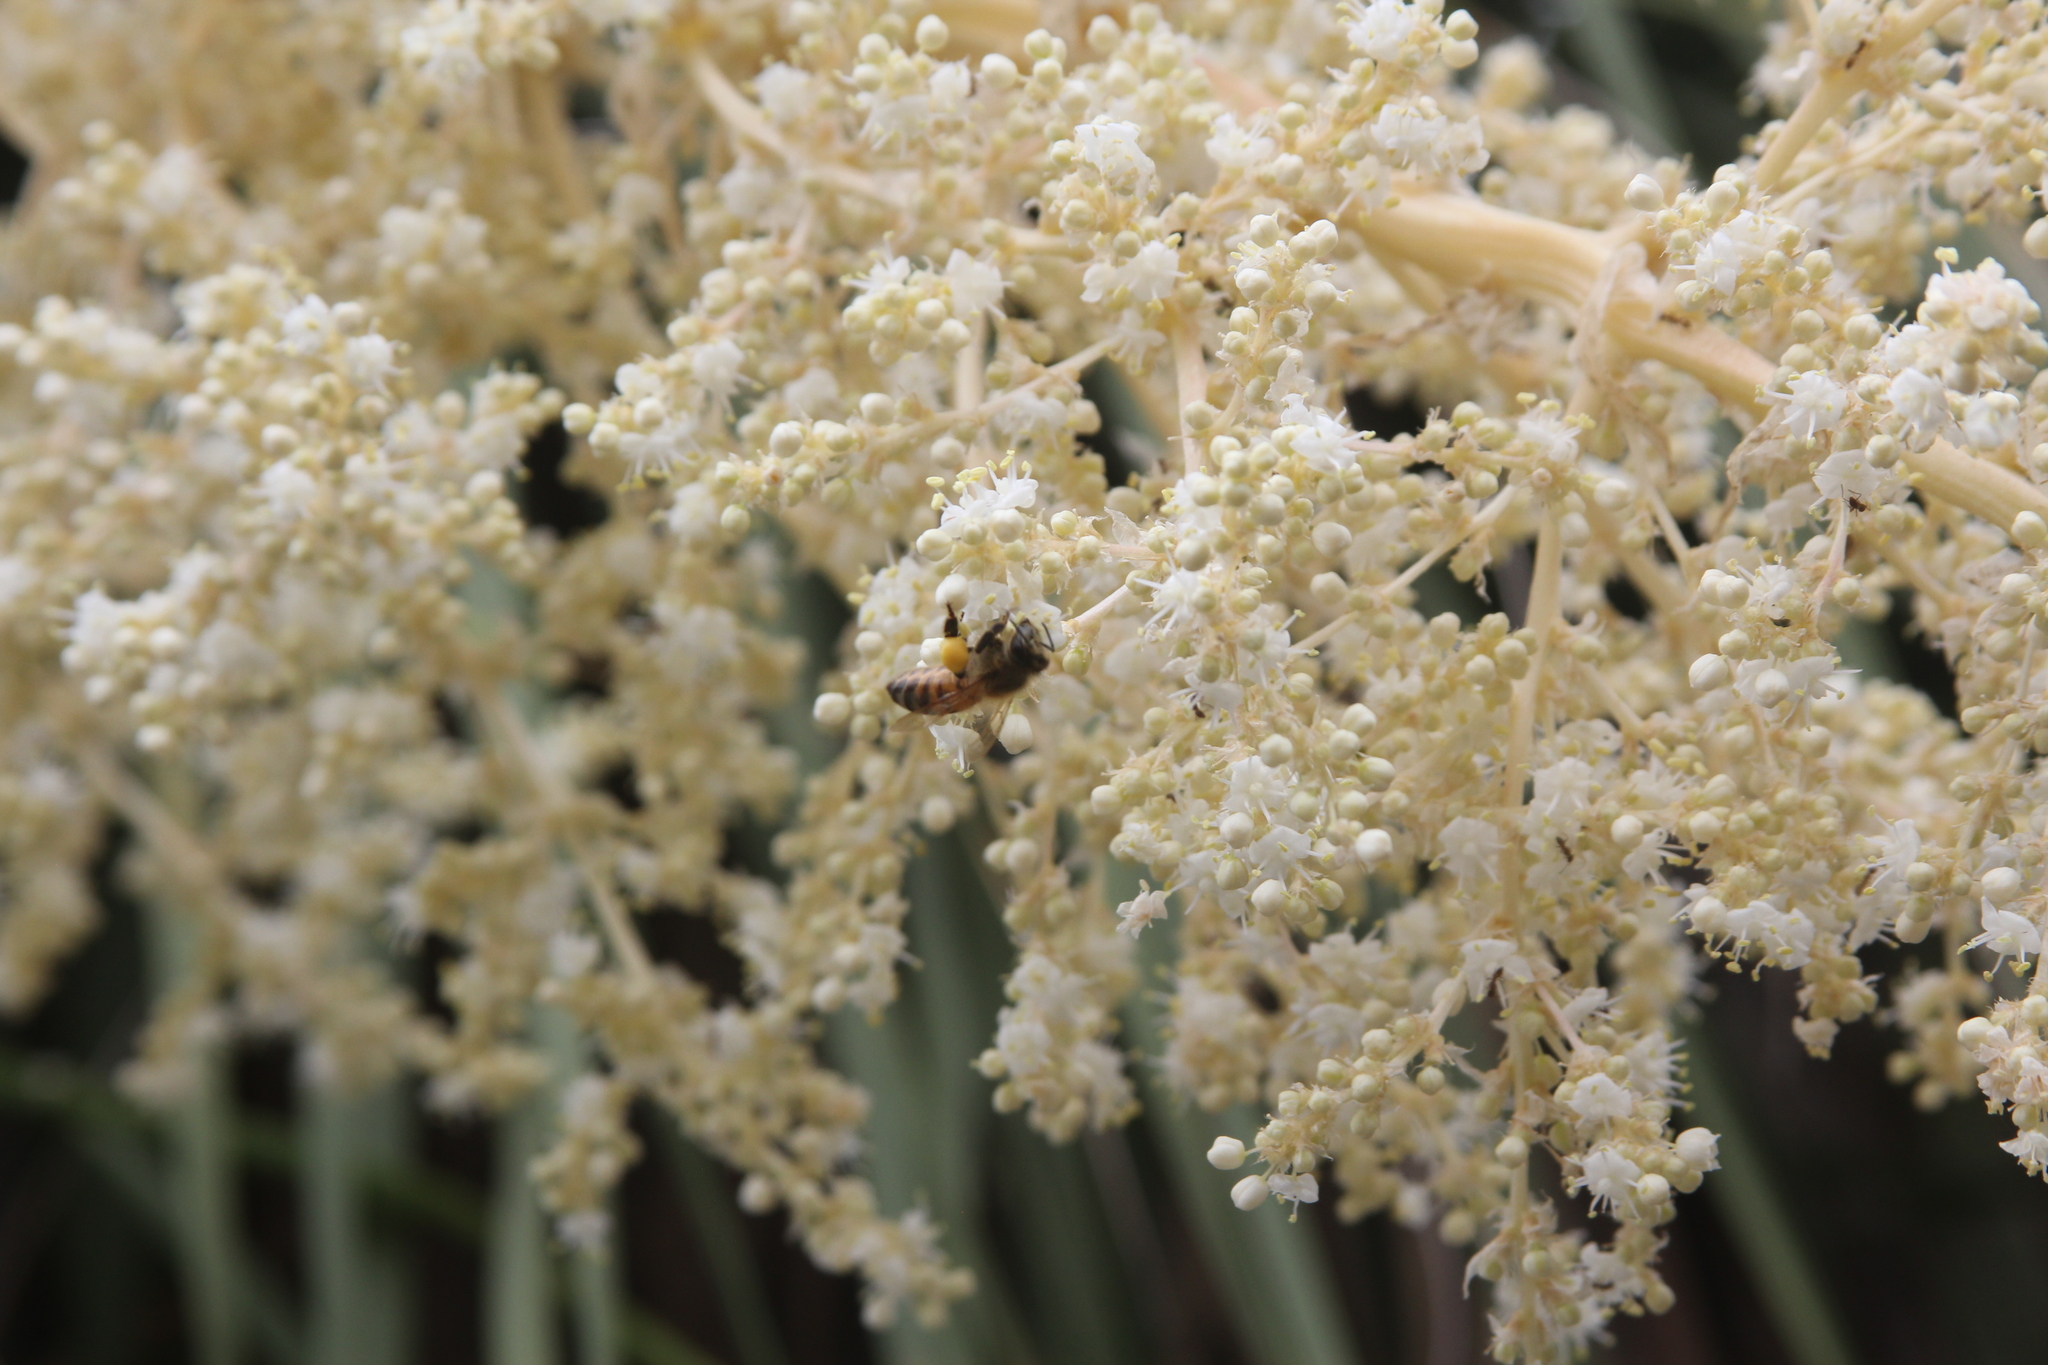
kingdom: Animalia
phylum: Arthropoda
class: Insecta
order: Hymenoptera
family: Apidae
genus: Apis
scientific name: Apis mellifera
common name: Honey bee
